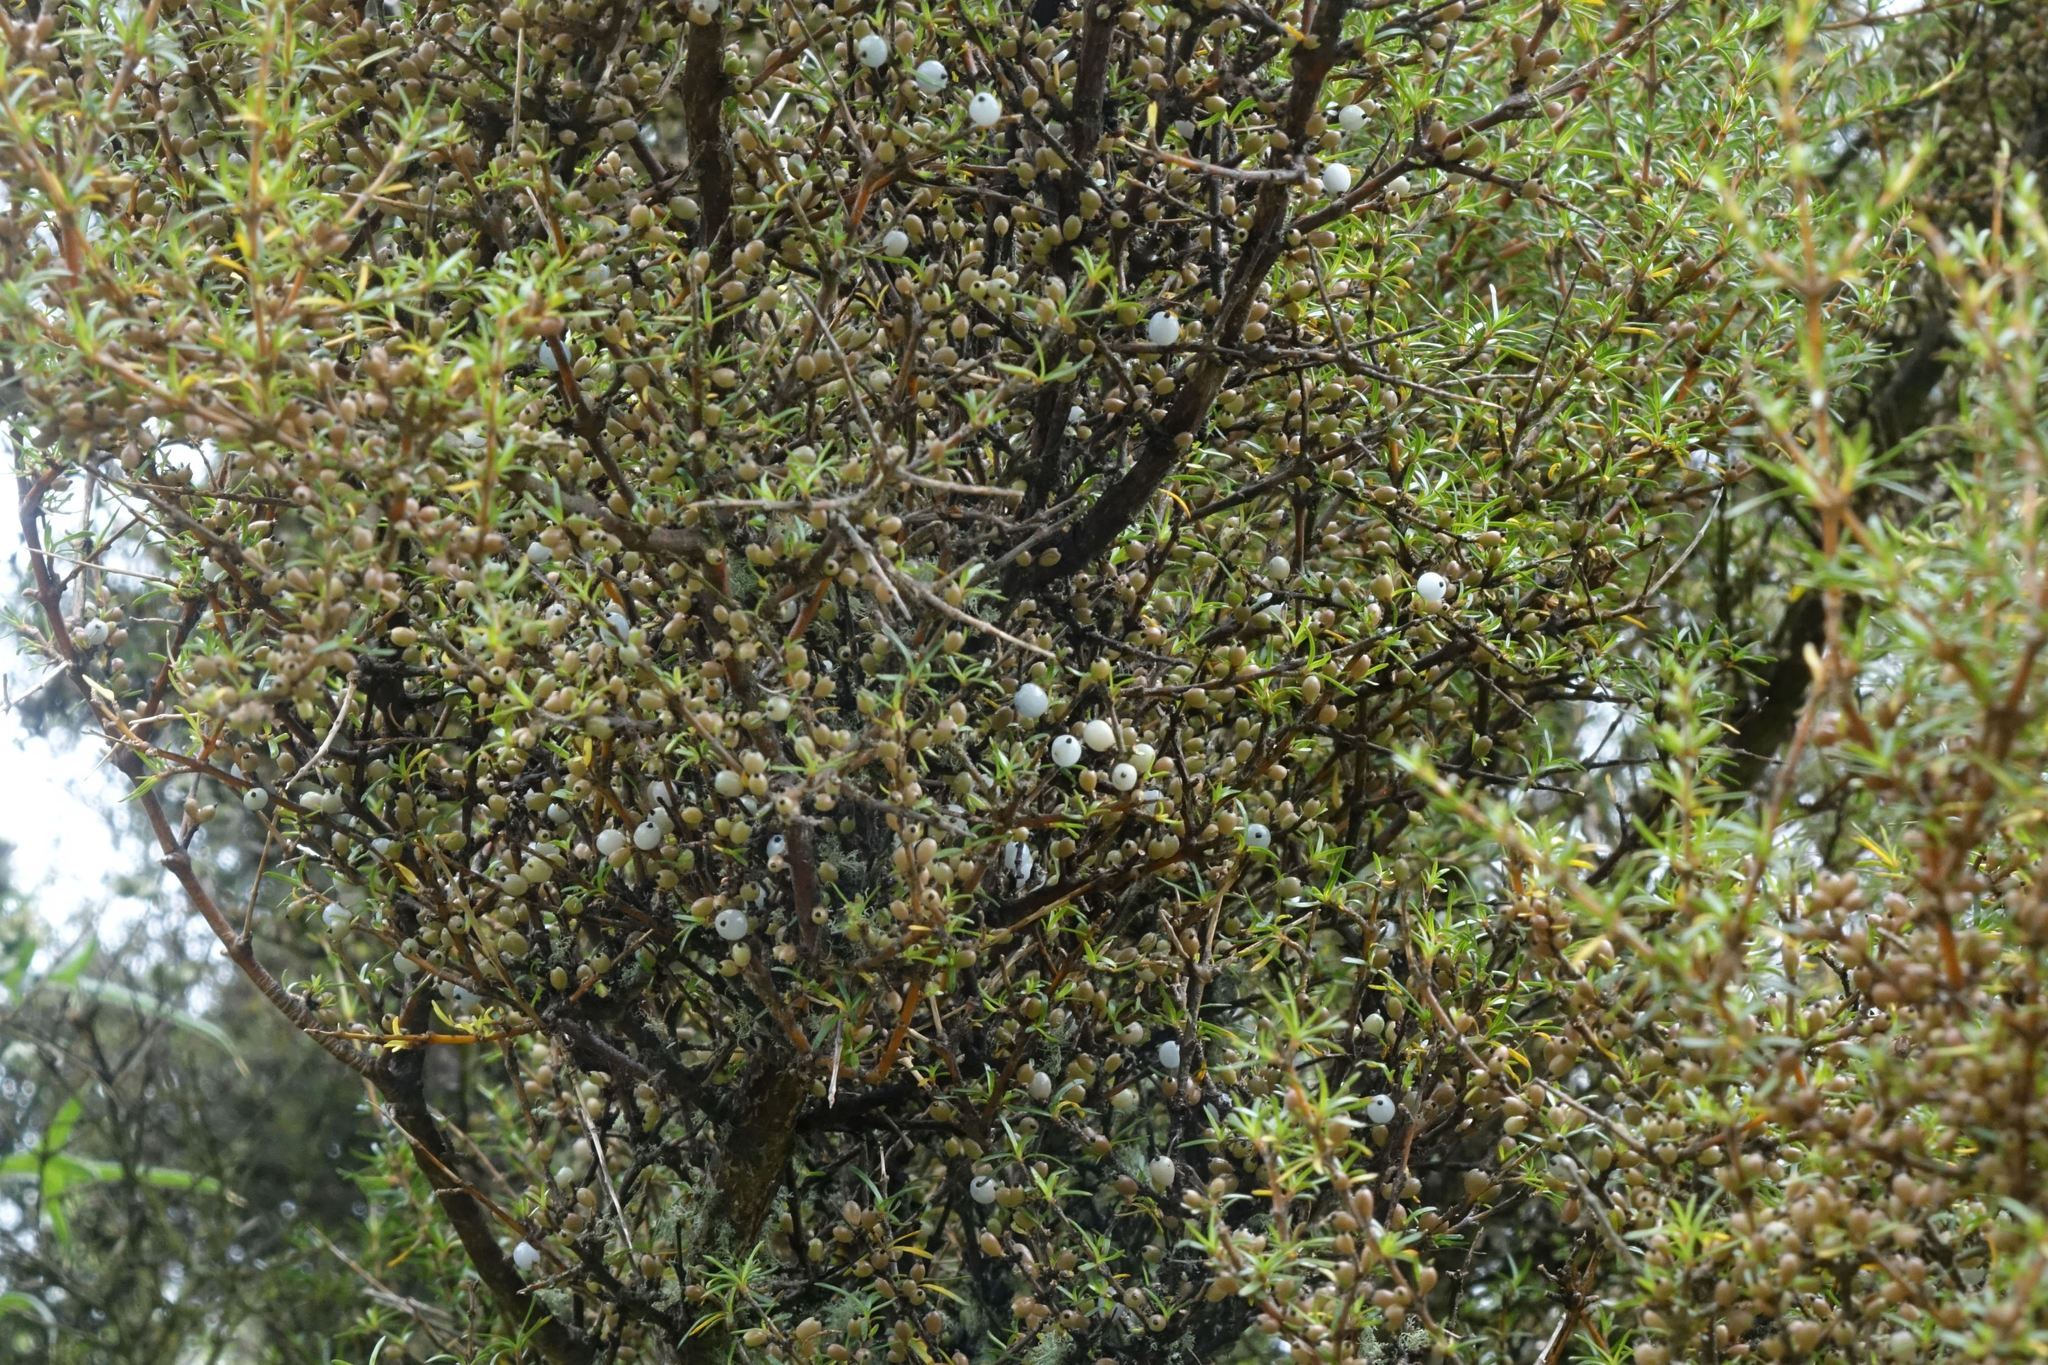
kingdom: Plantae
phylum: Tracheophyta
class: Magnoliopsida
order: Gentianales
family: Rubiaceae
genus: Coprosma
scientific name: Coprosma rugosa
